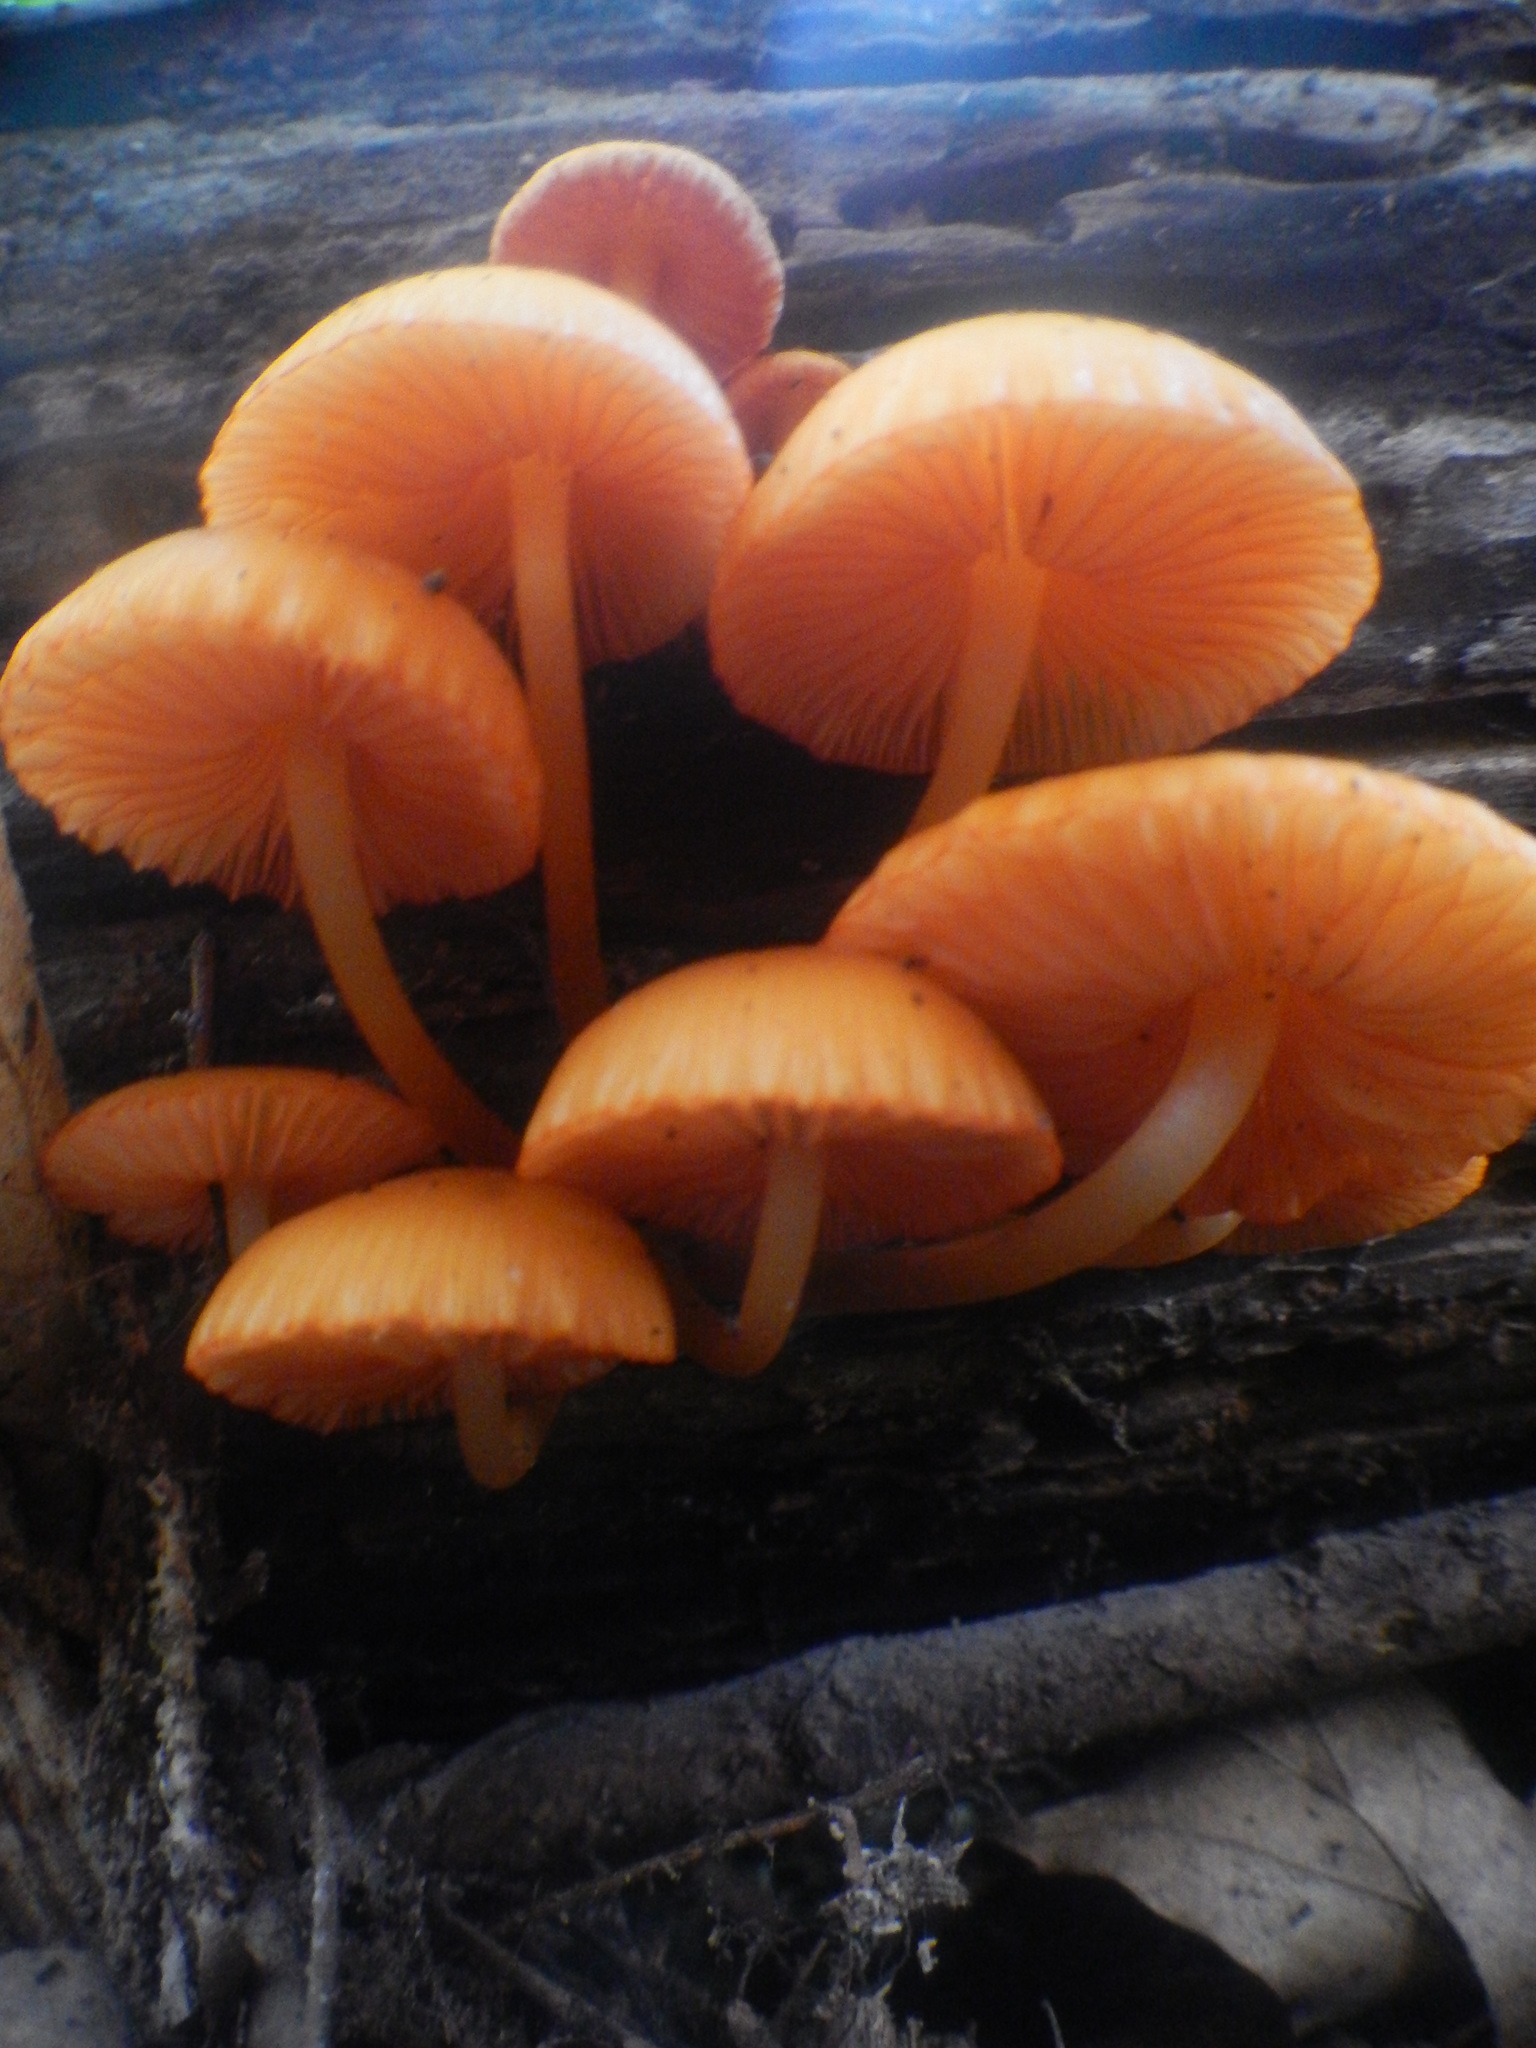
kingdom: Fungi
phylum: Basidiomycota
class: Agaricomycetes
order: Agaricales
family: Mycenaceae
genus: Mycena
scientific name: Mycena leaiana
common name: Orange mycena
